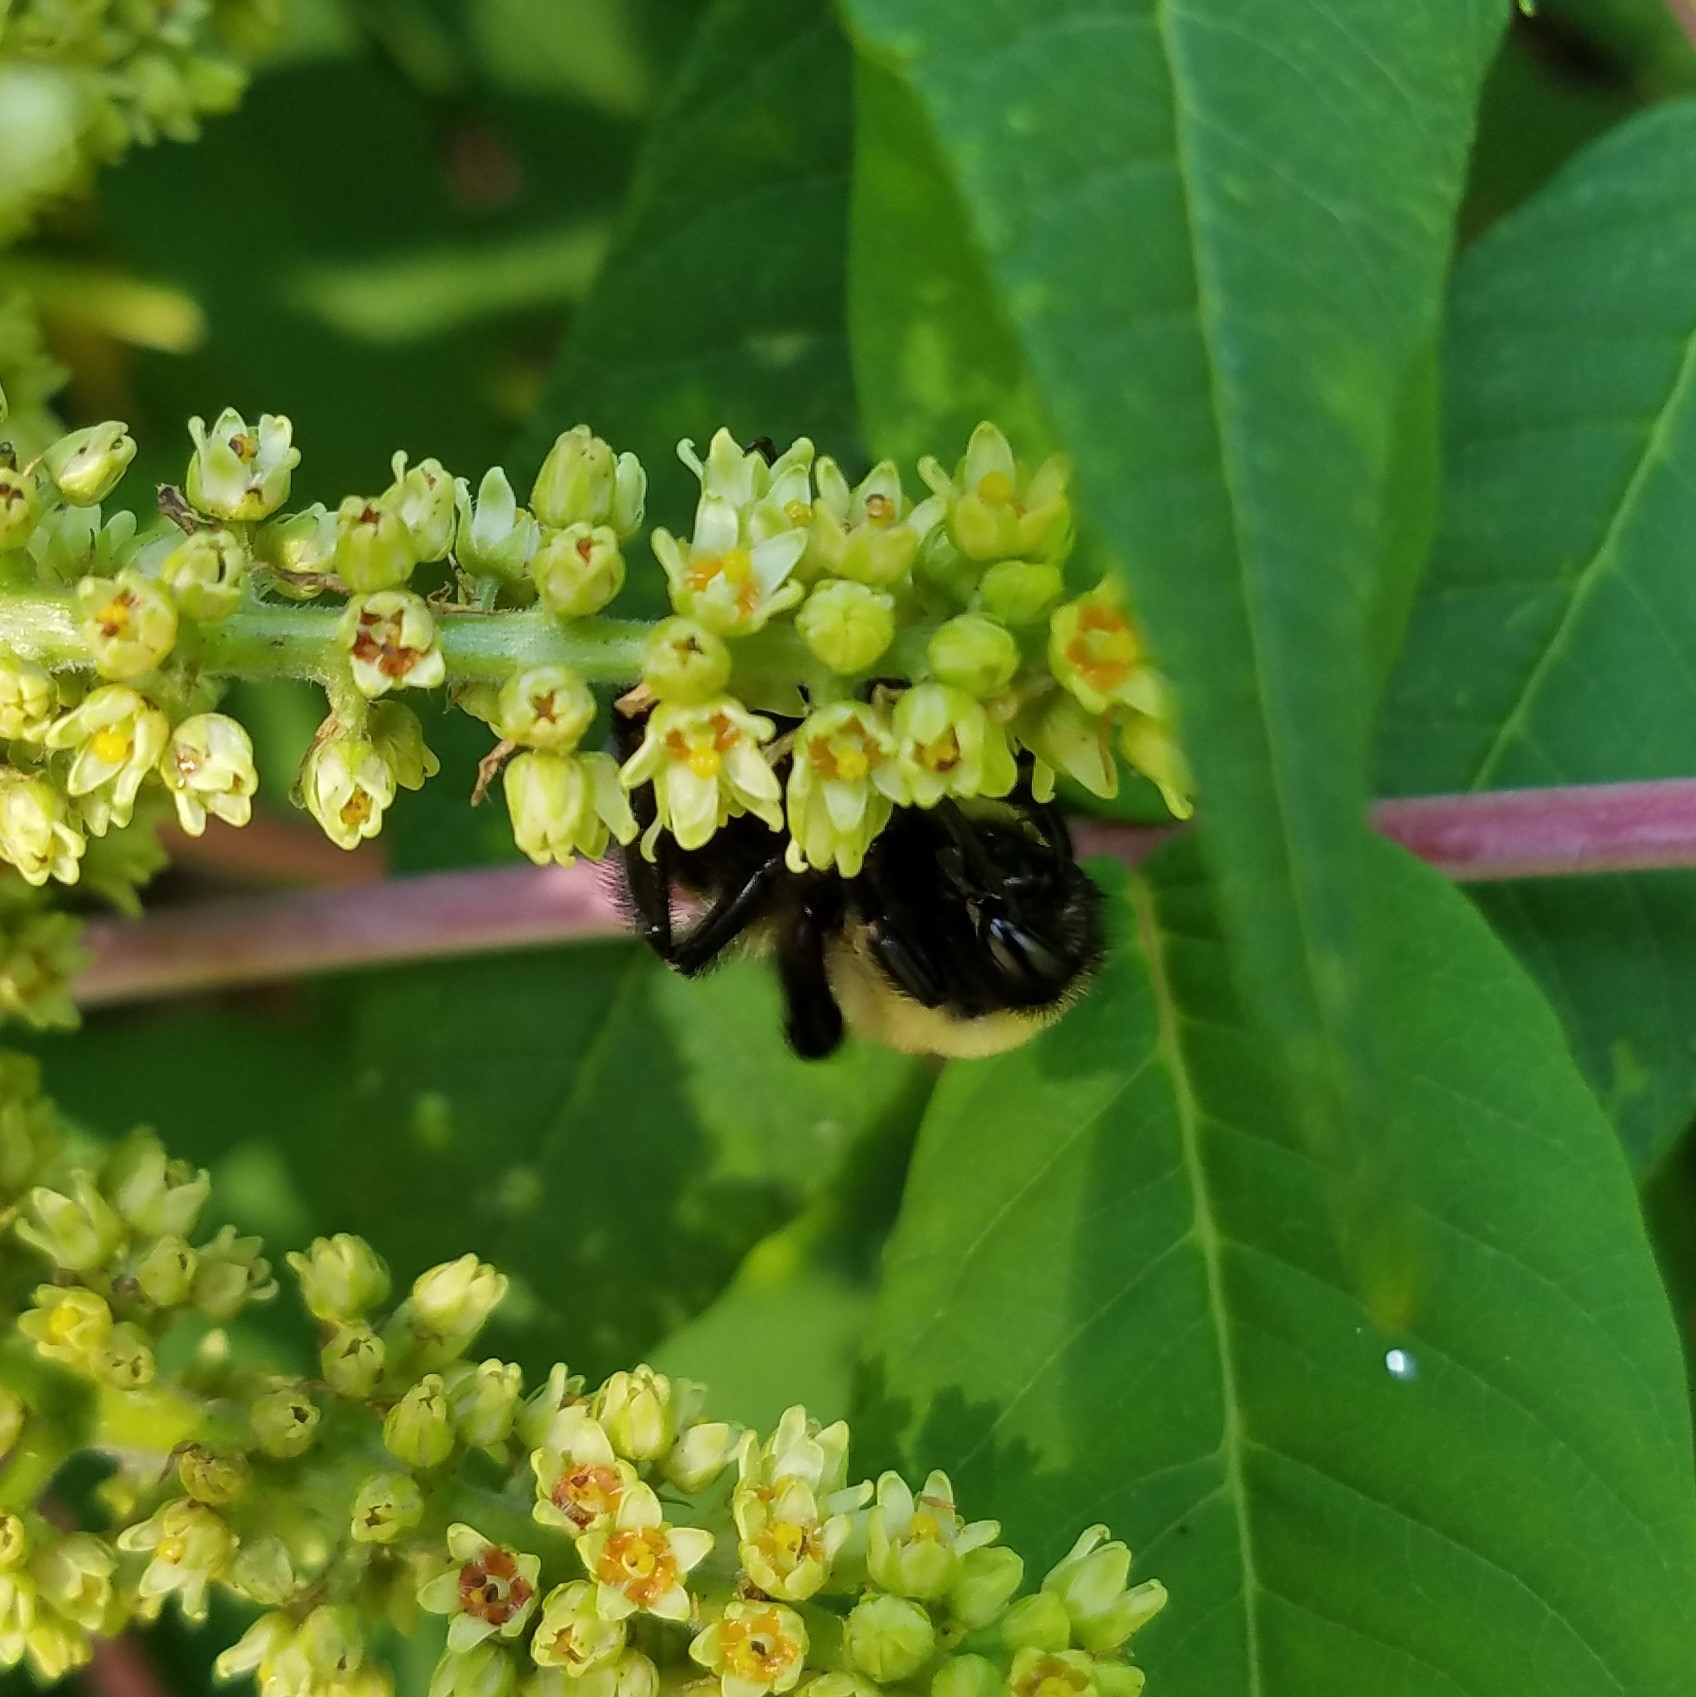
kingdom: Animalia
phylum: Arthropoda
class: Insecta
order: Hymenoptera
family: Apidae
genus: Bombus
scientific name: Bombus griseocollis
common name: Brown-belted bumble bee
